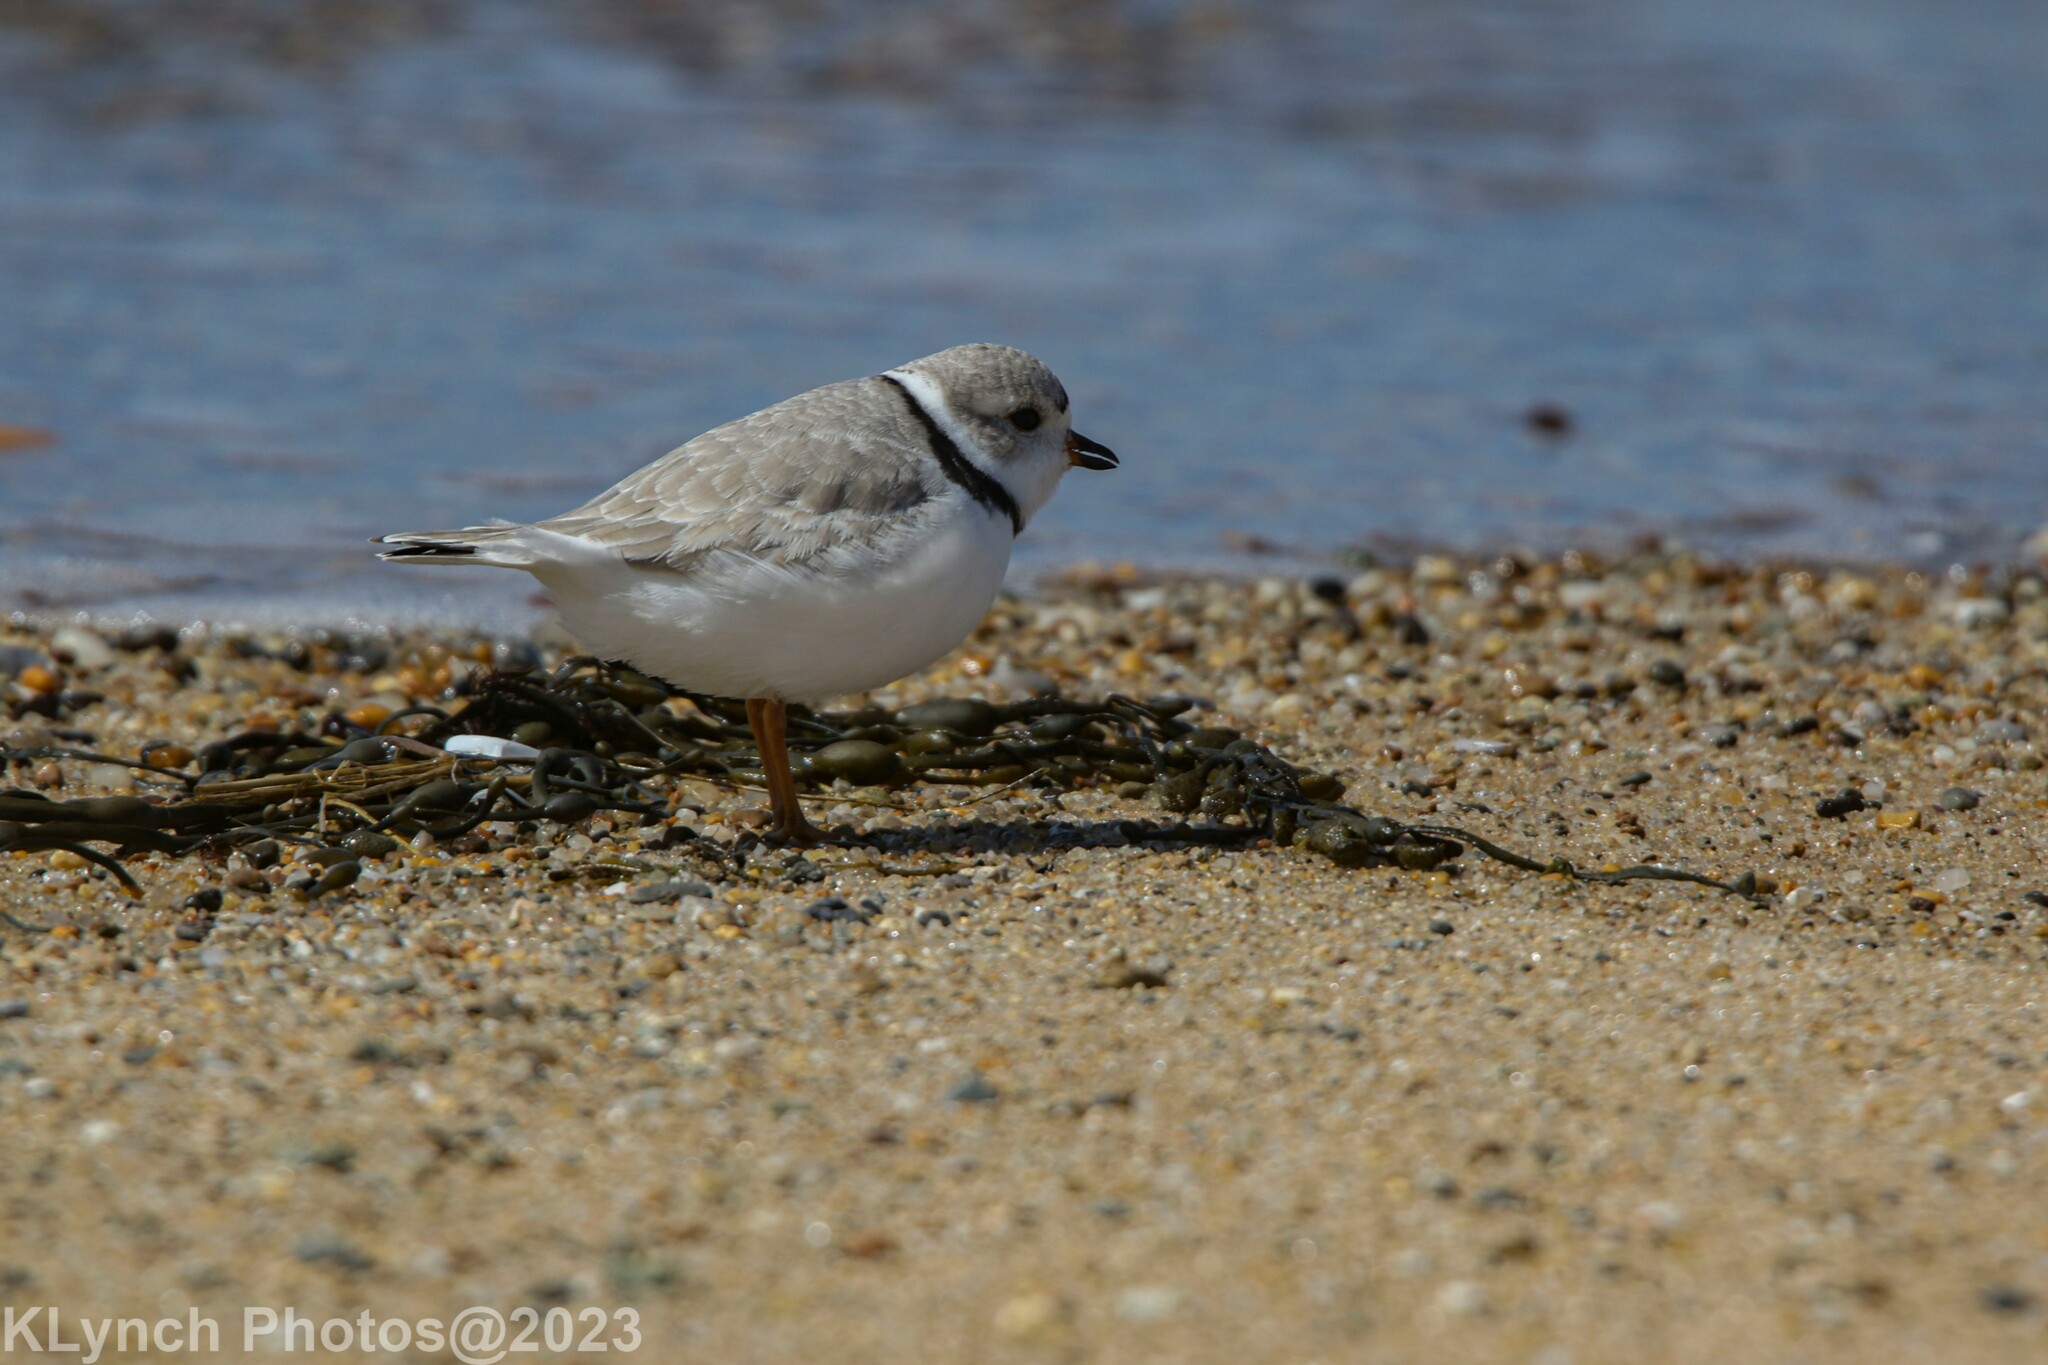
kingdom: Animalia
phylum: Chordata
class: Aves
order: Charadriiformes
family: Charadriidae
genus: Charadrius
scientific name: Charadrius melodus
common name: Piping plover
